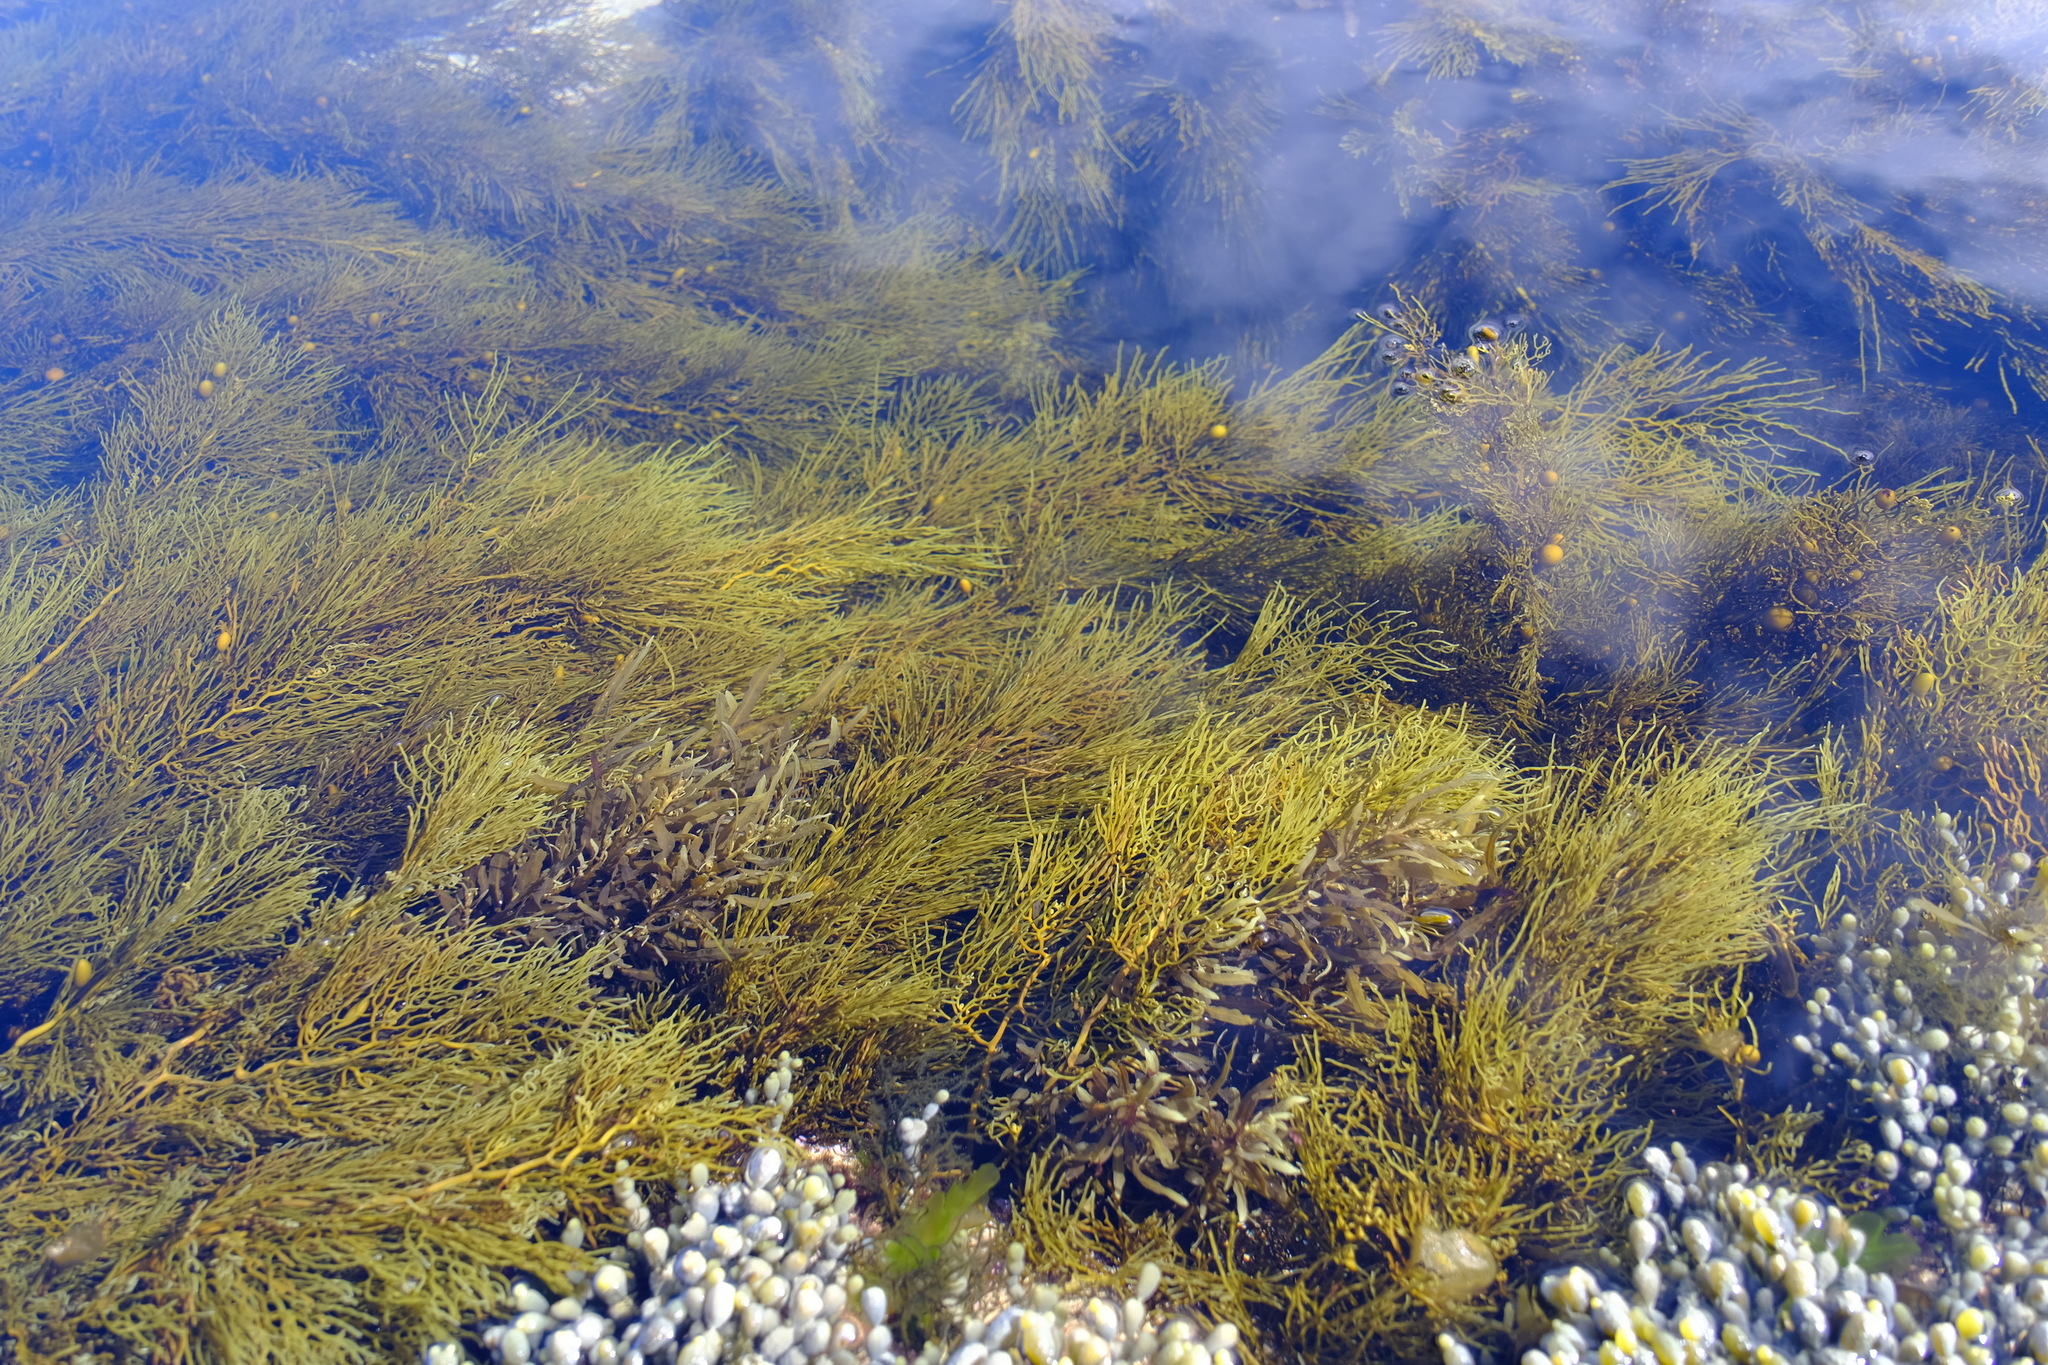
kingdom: Chromista
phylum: Ochrophyta
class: Phaeophyceae
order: Fucales
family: Sargassaceae
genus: Cystophora
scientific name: Cystophora
